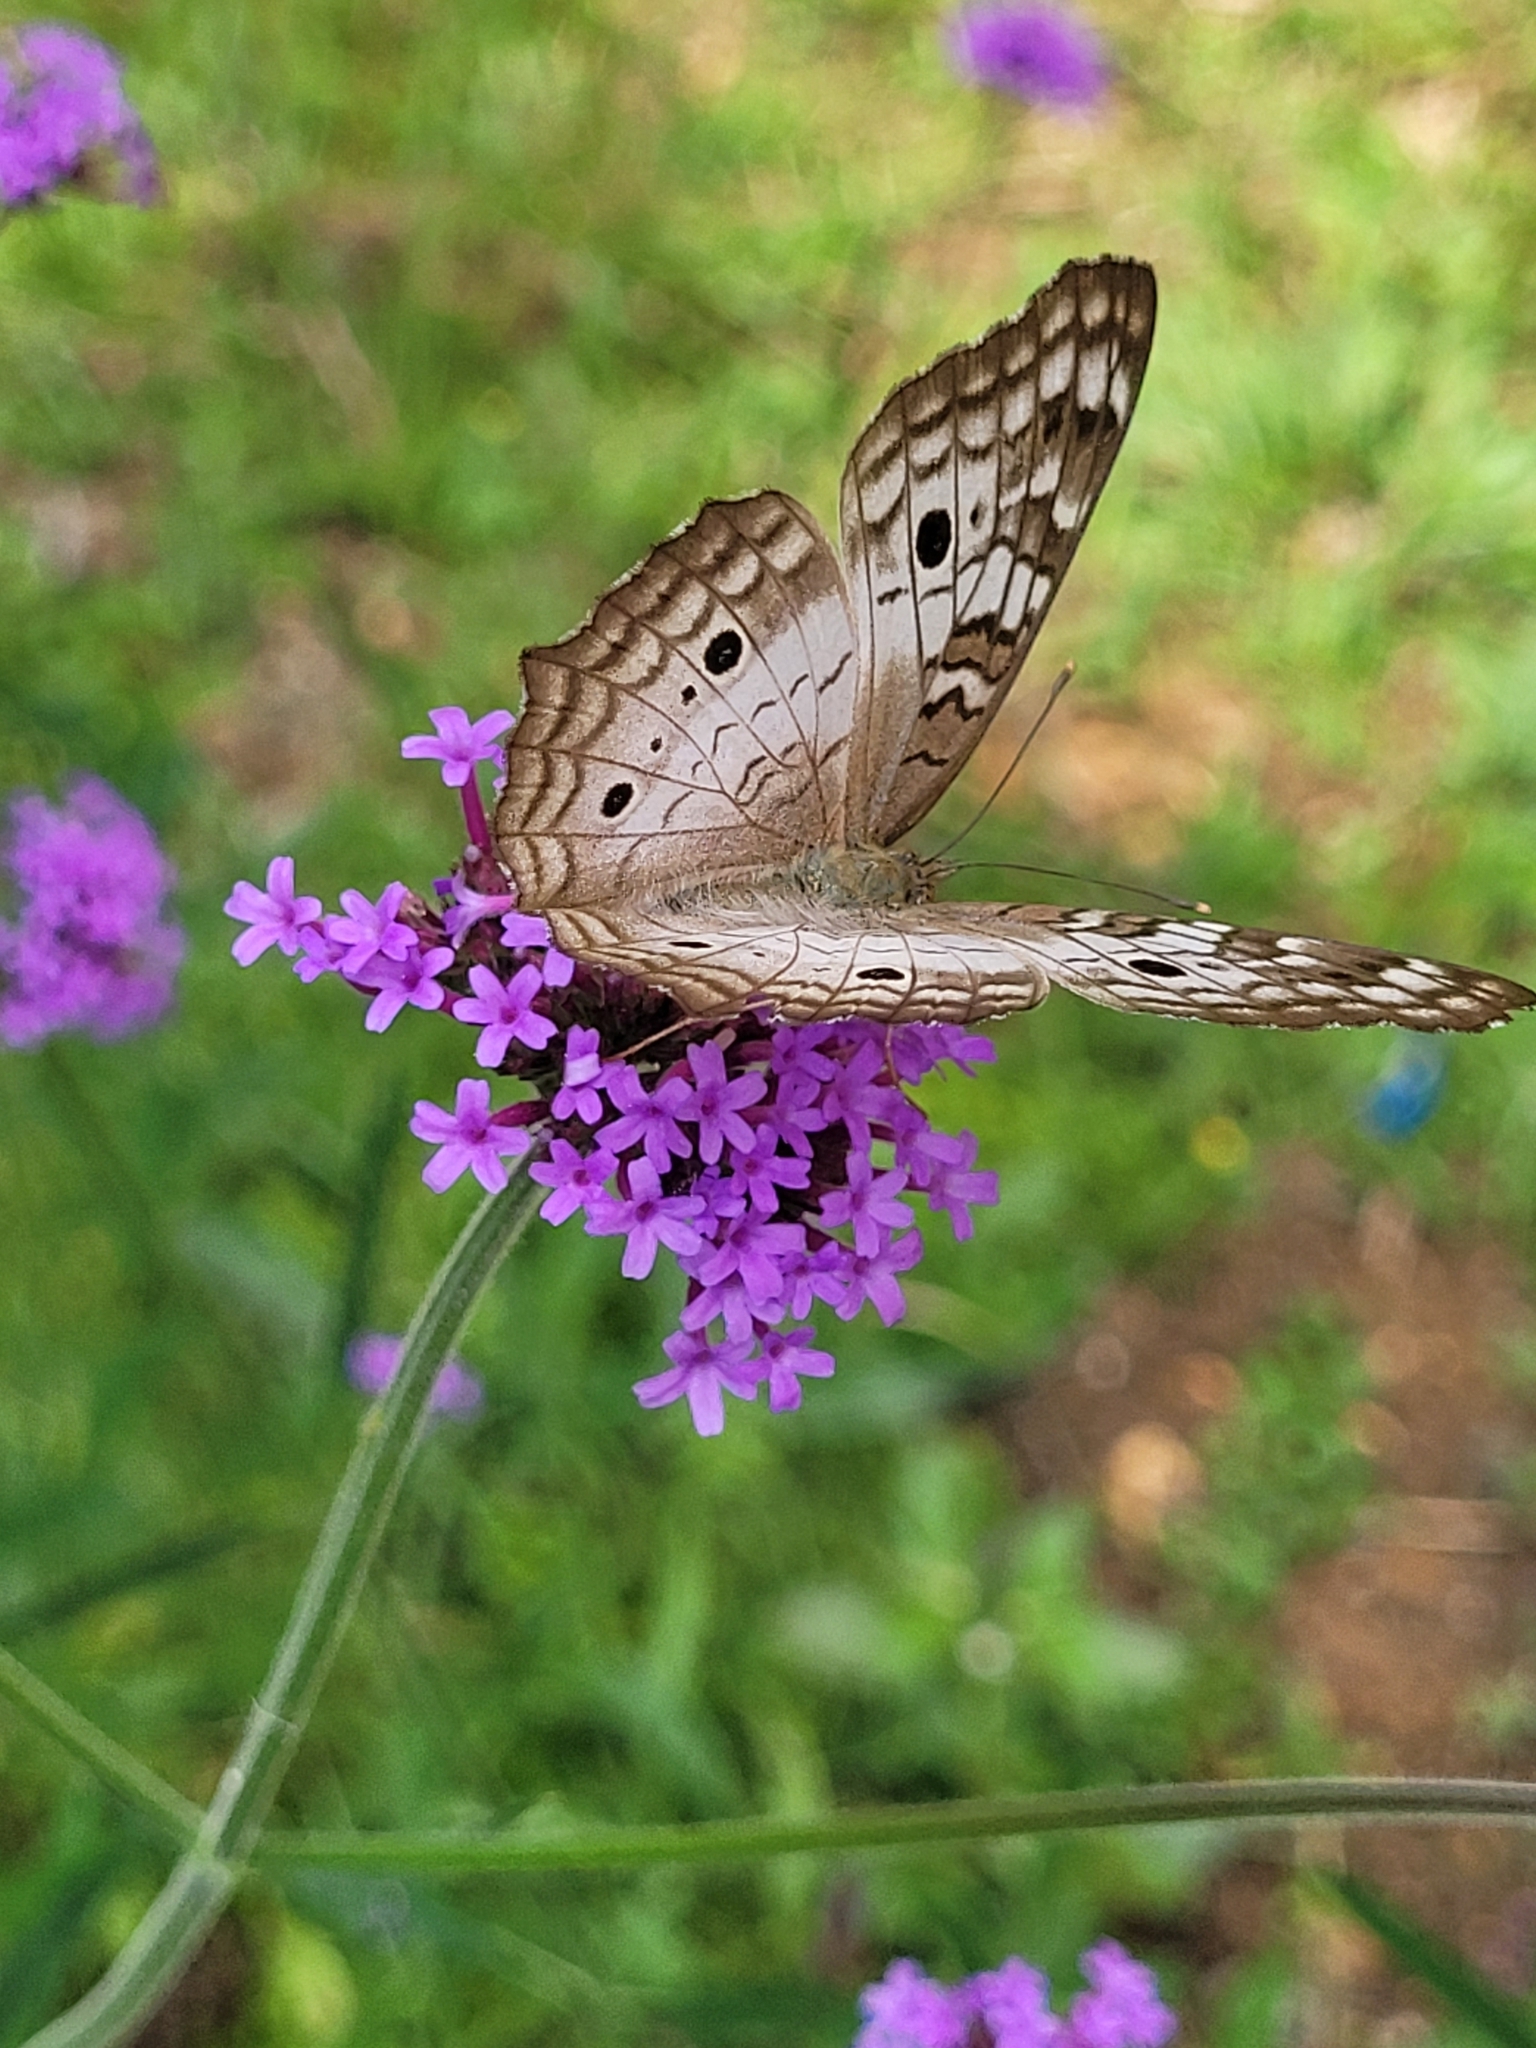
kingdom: Animalia
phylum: Arthropoda
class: Insecta
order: Lepidoptera
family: Nymphalidae
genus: Anartia
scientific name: Anartia jatrophae
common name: White peacock
